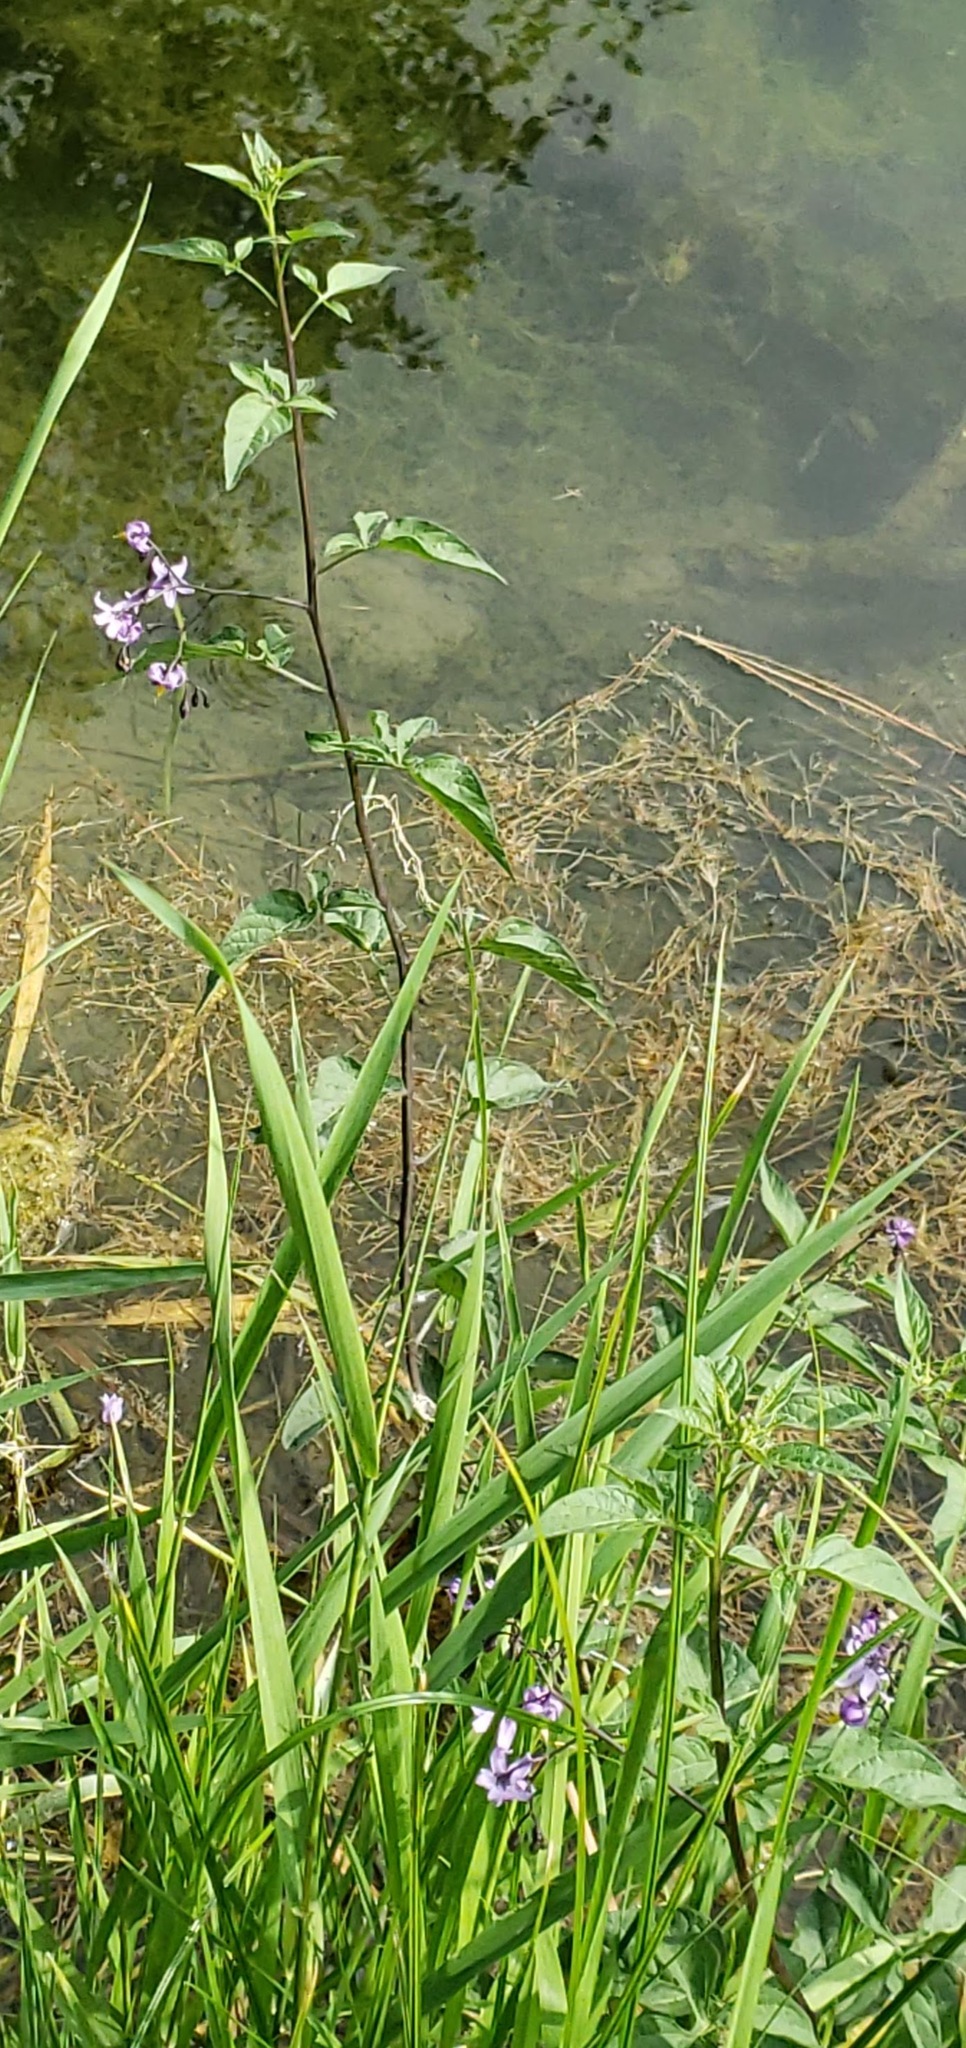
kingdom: Plantae
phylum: Tracheophyta
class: Magnoliopsida
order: Solanales
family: Solanaceae
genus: Solanum
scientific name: Solanum dulcamara
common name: Climbing nightshade
